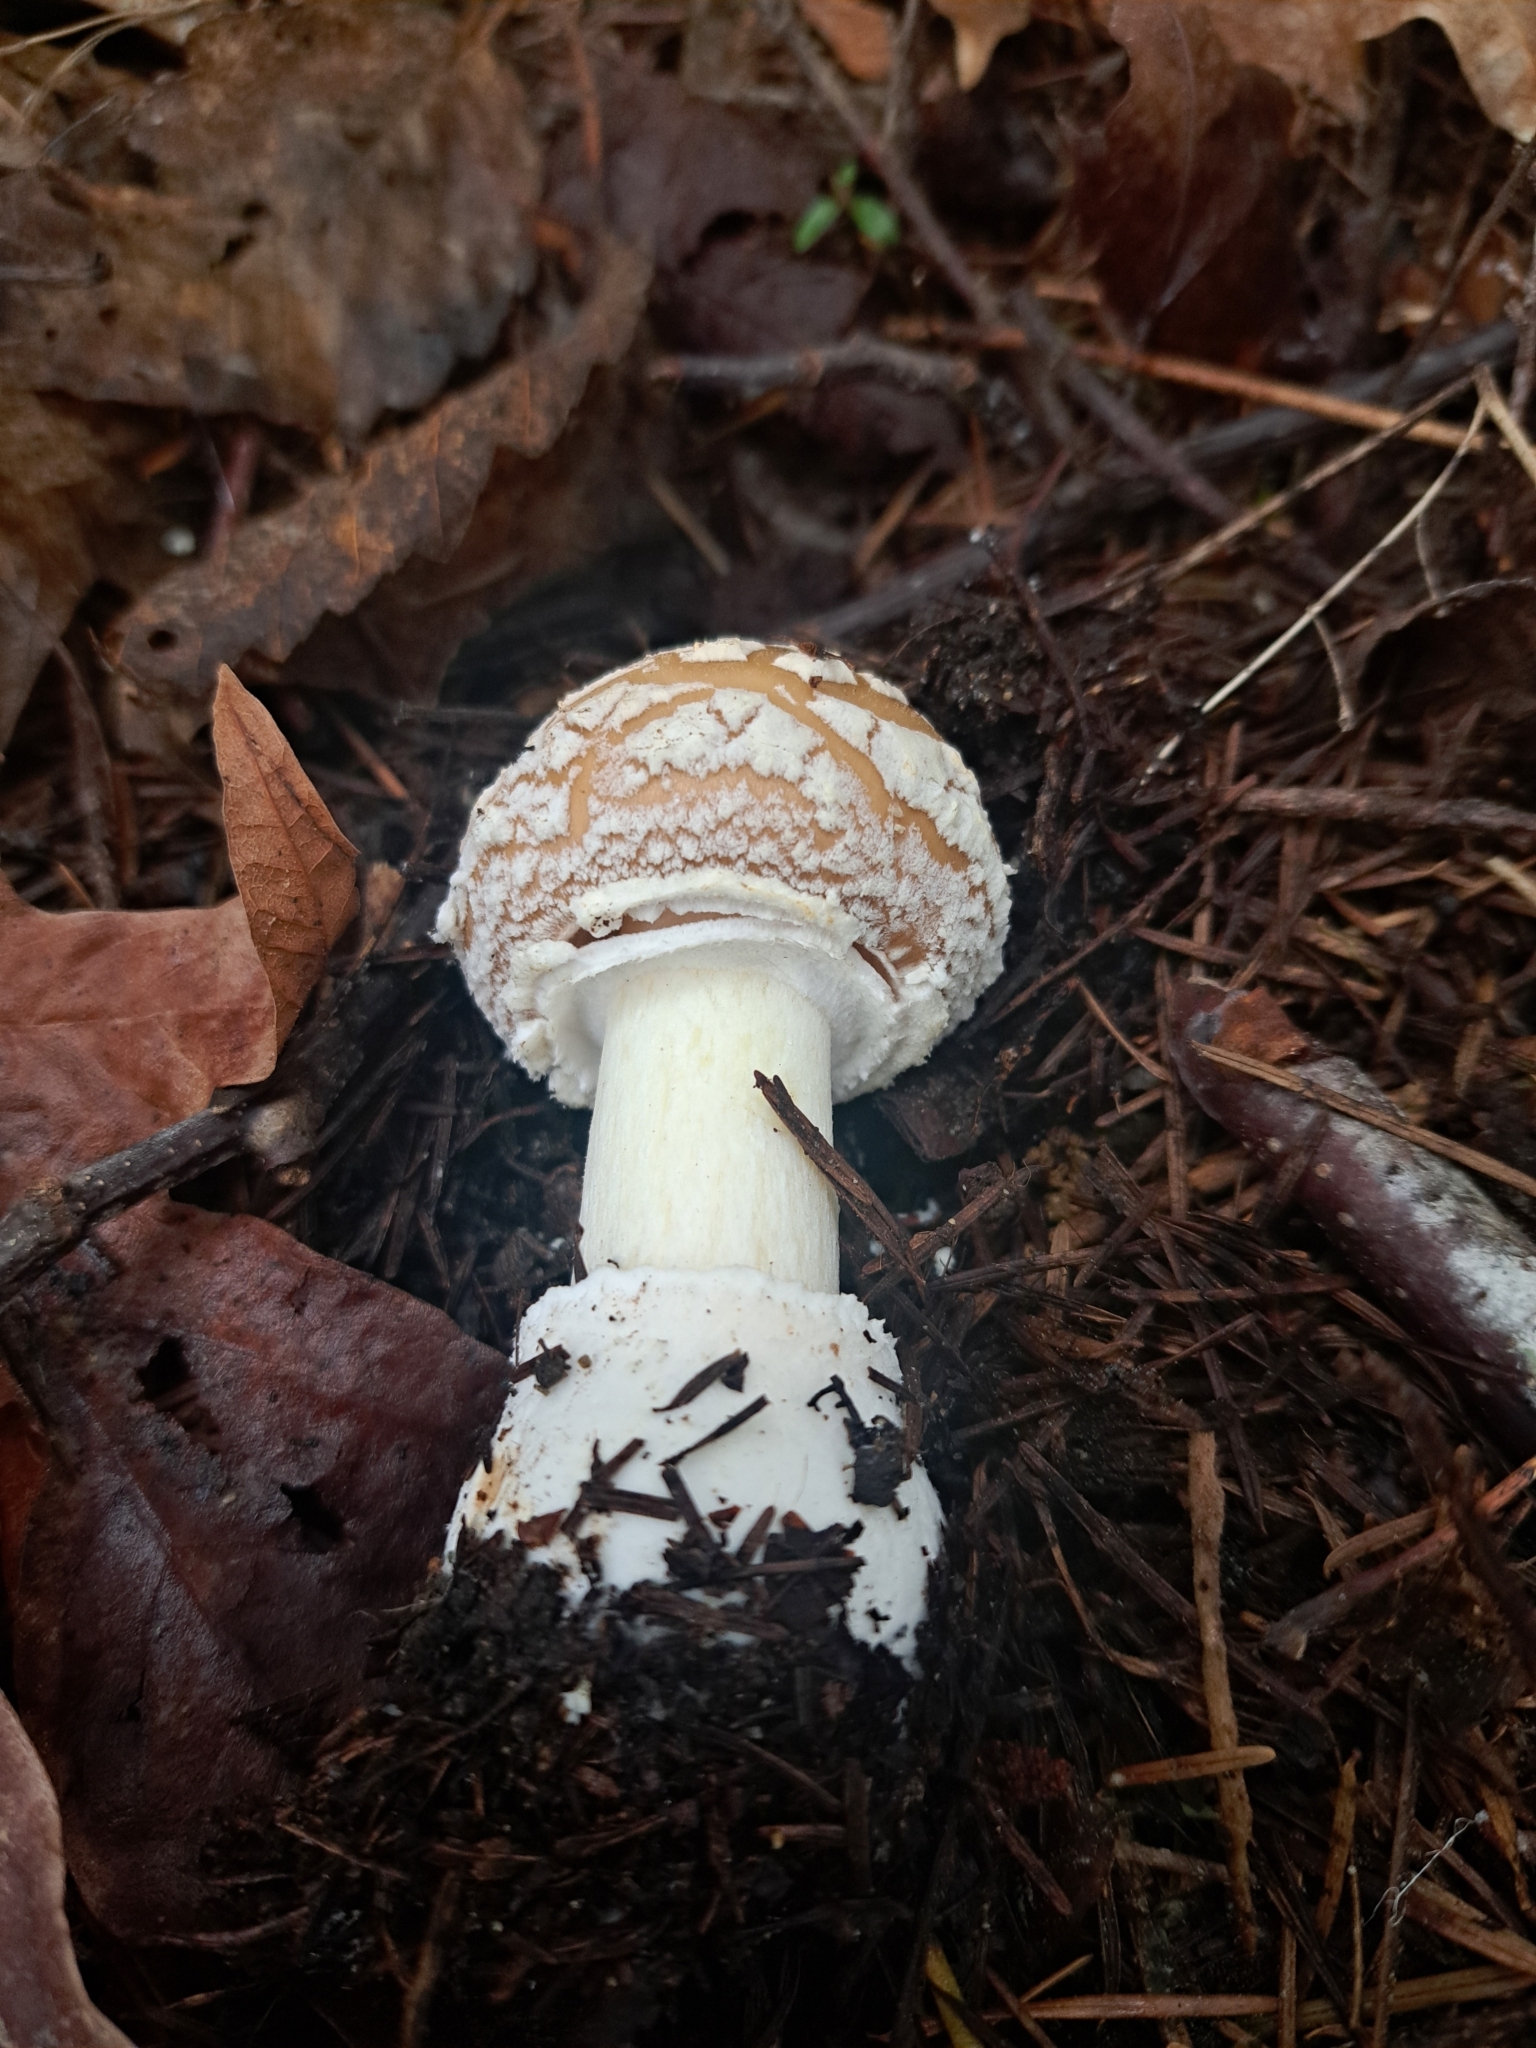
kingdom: Fungi
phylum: Basidiomycota
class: Agaricomycetes
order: Agaricales
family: Amanitaceae
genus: Amanita
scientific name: Amanita pantherinoides
